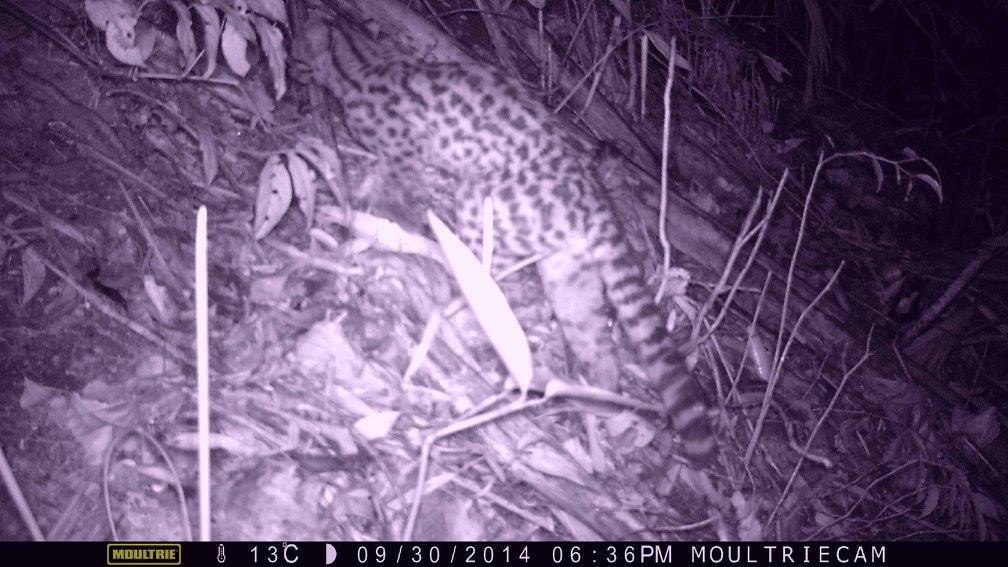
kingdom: Animalia
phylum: Chordata
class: Mammalia
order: Carnivora
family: Felidae
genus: Leopardus
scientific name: Leopardus wiedii
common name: Margay
